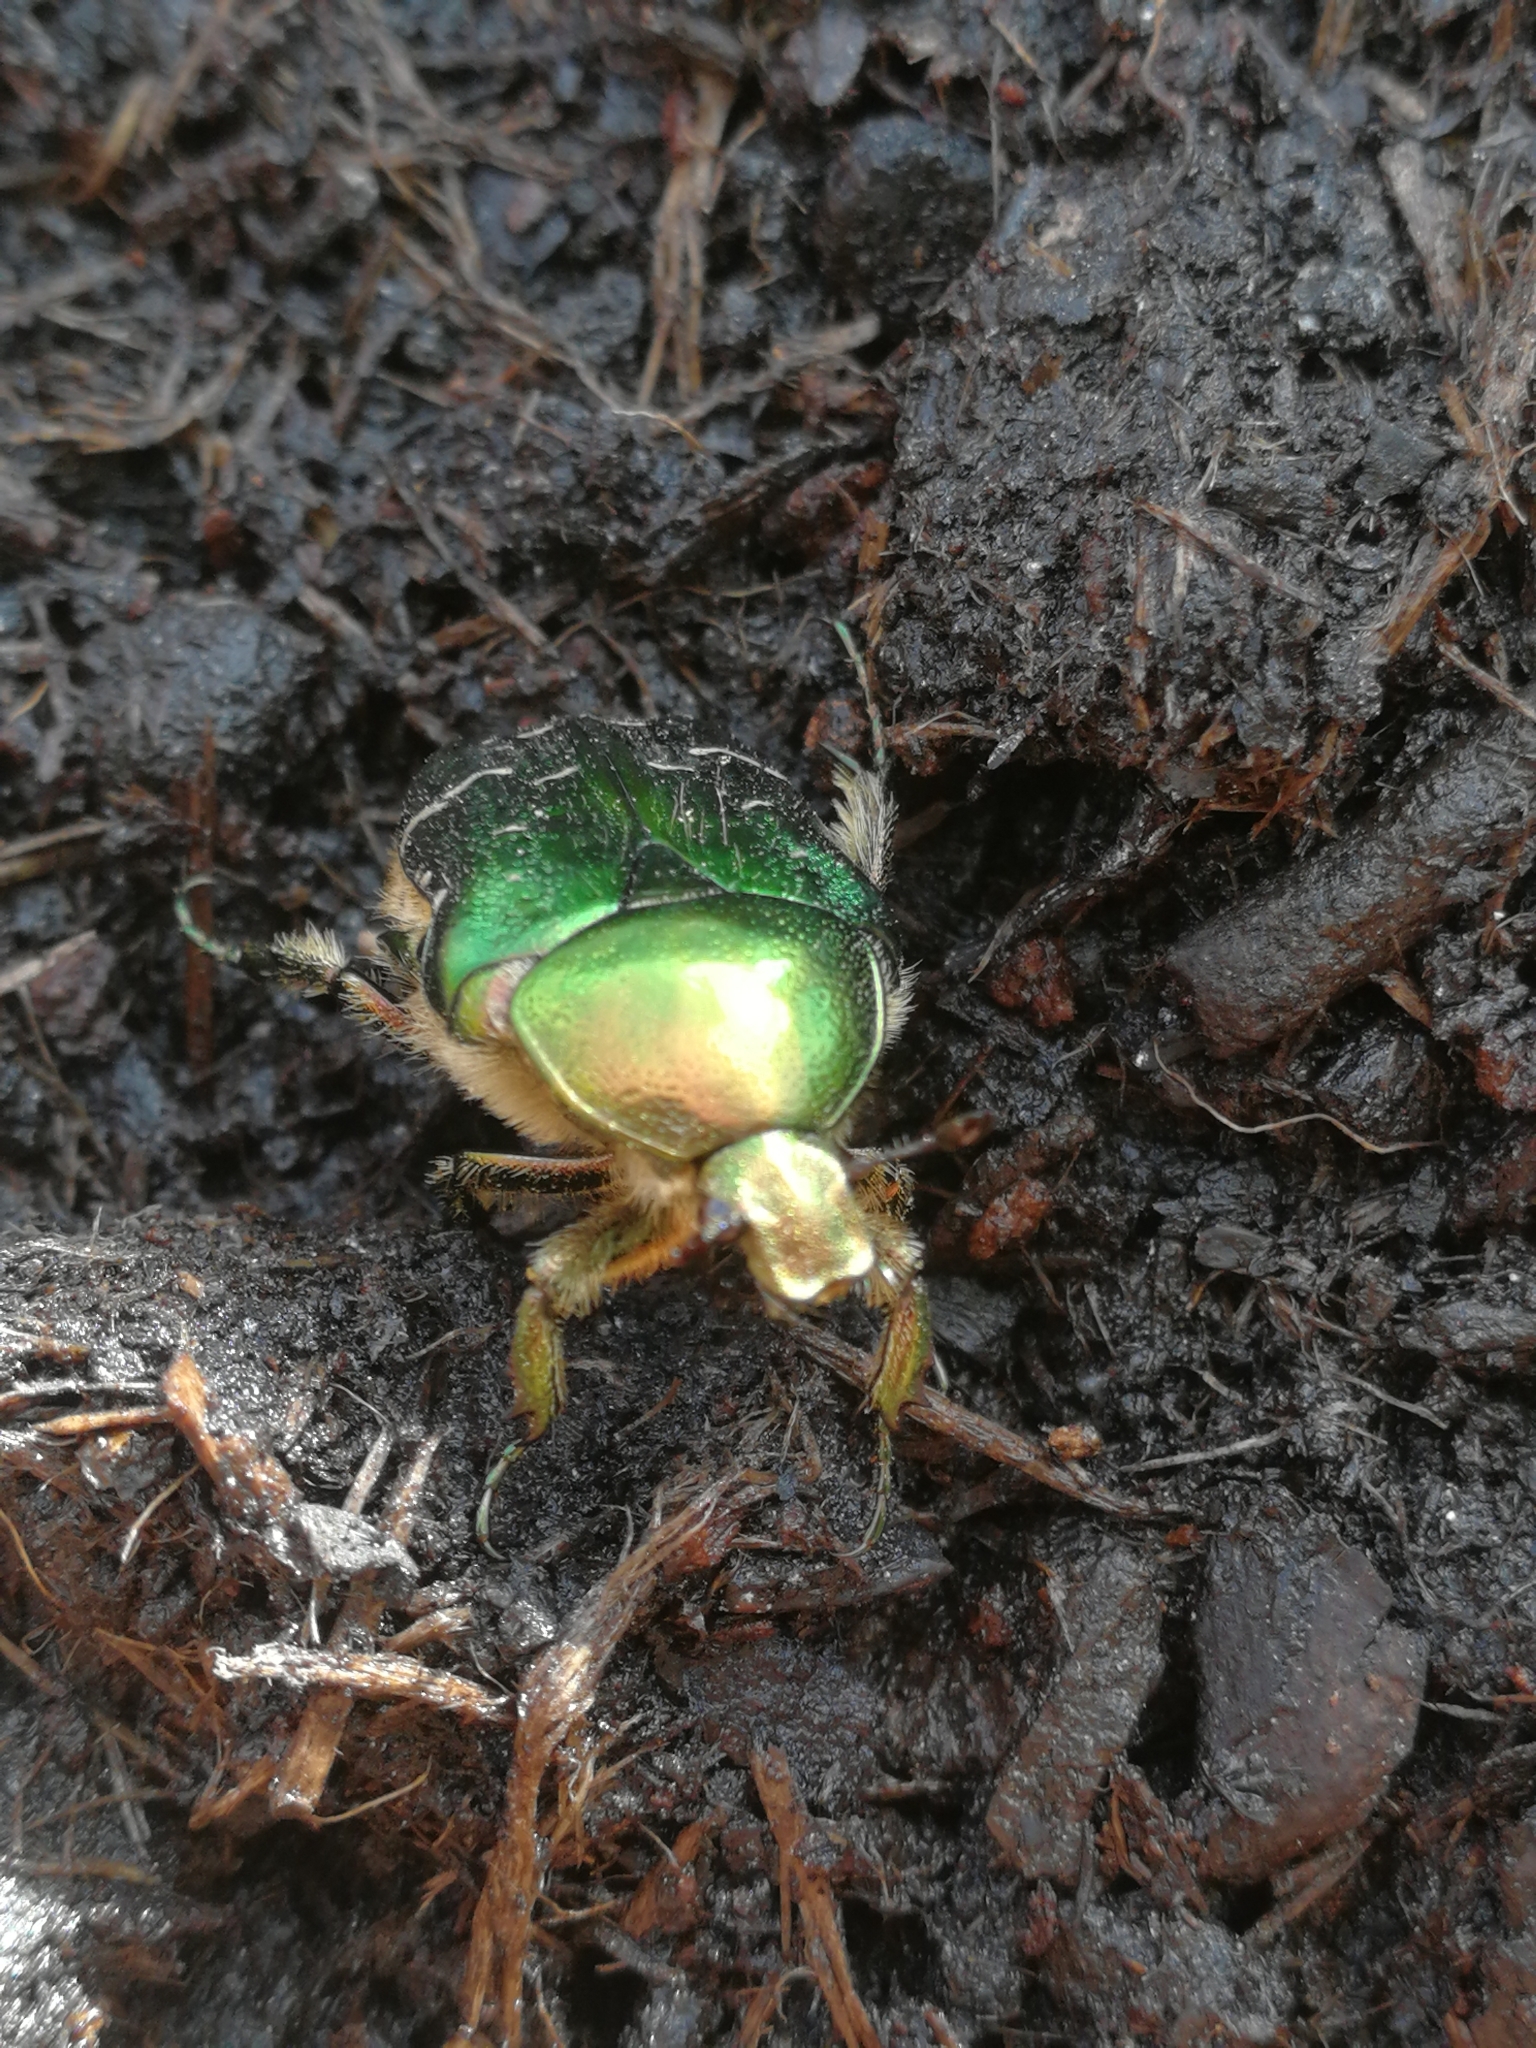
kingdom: Animalia
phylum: Arthropoda
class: Insecta
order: Coleoptera
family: Scarabaeidae
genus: Cetonia
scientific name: Cetonia aurata
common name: Rose chafer
